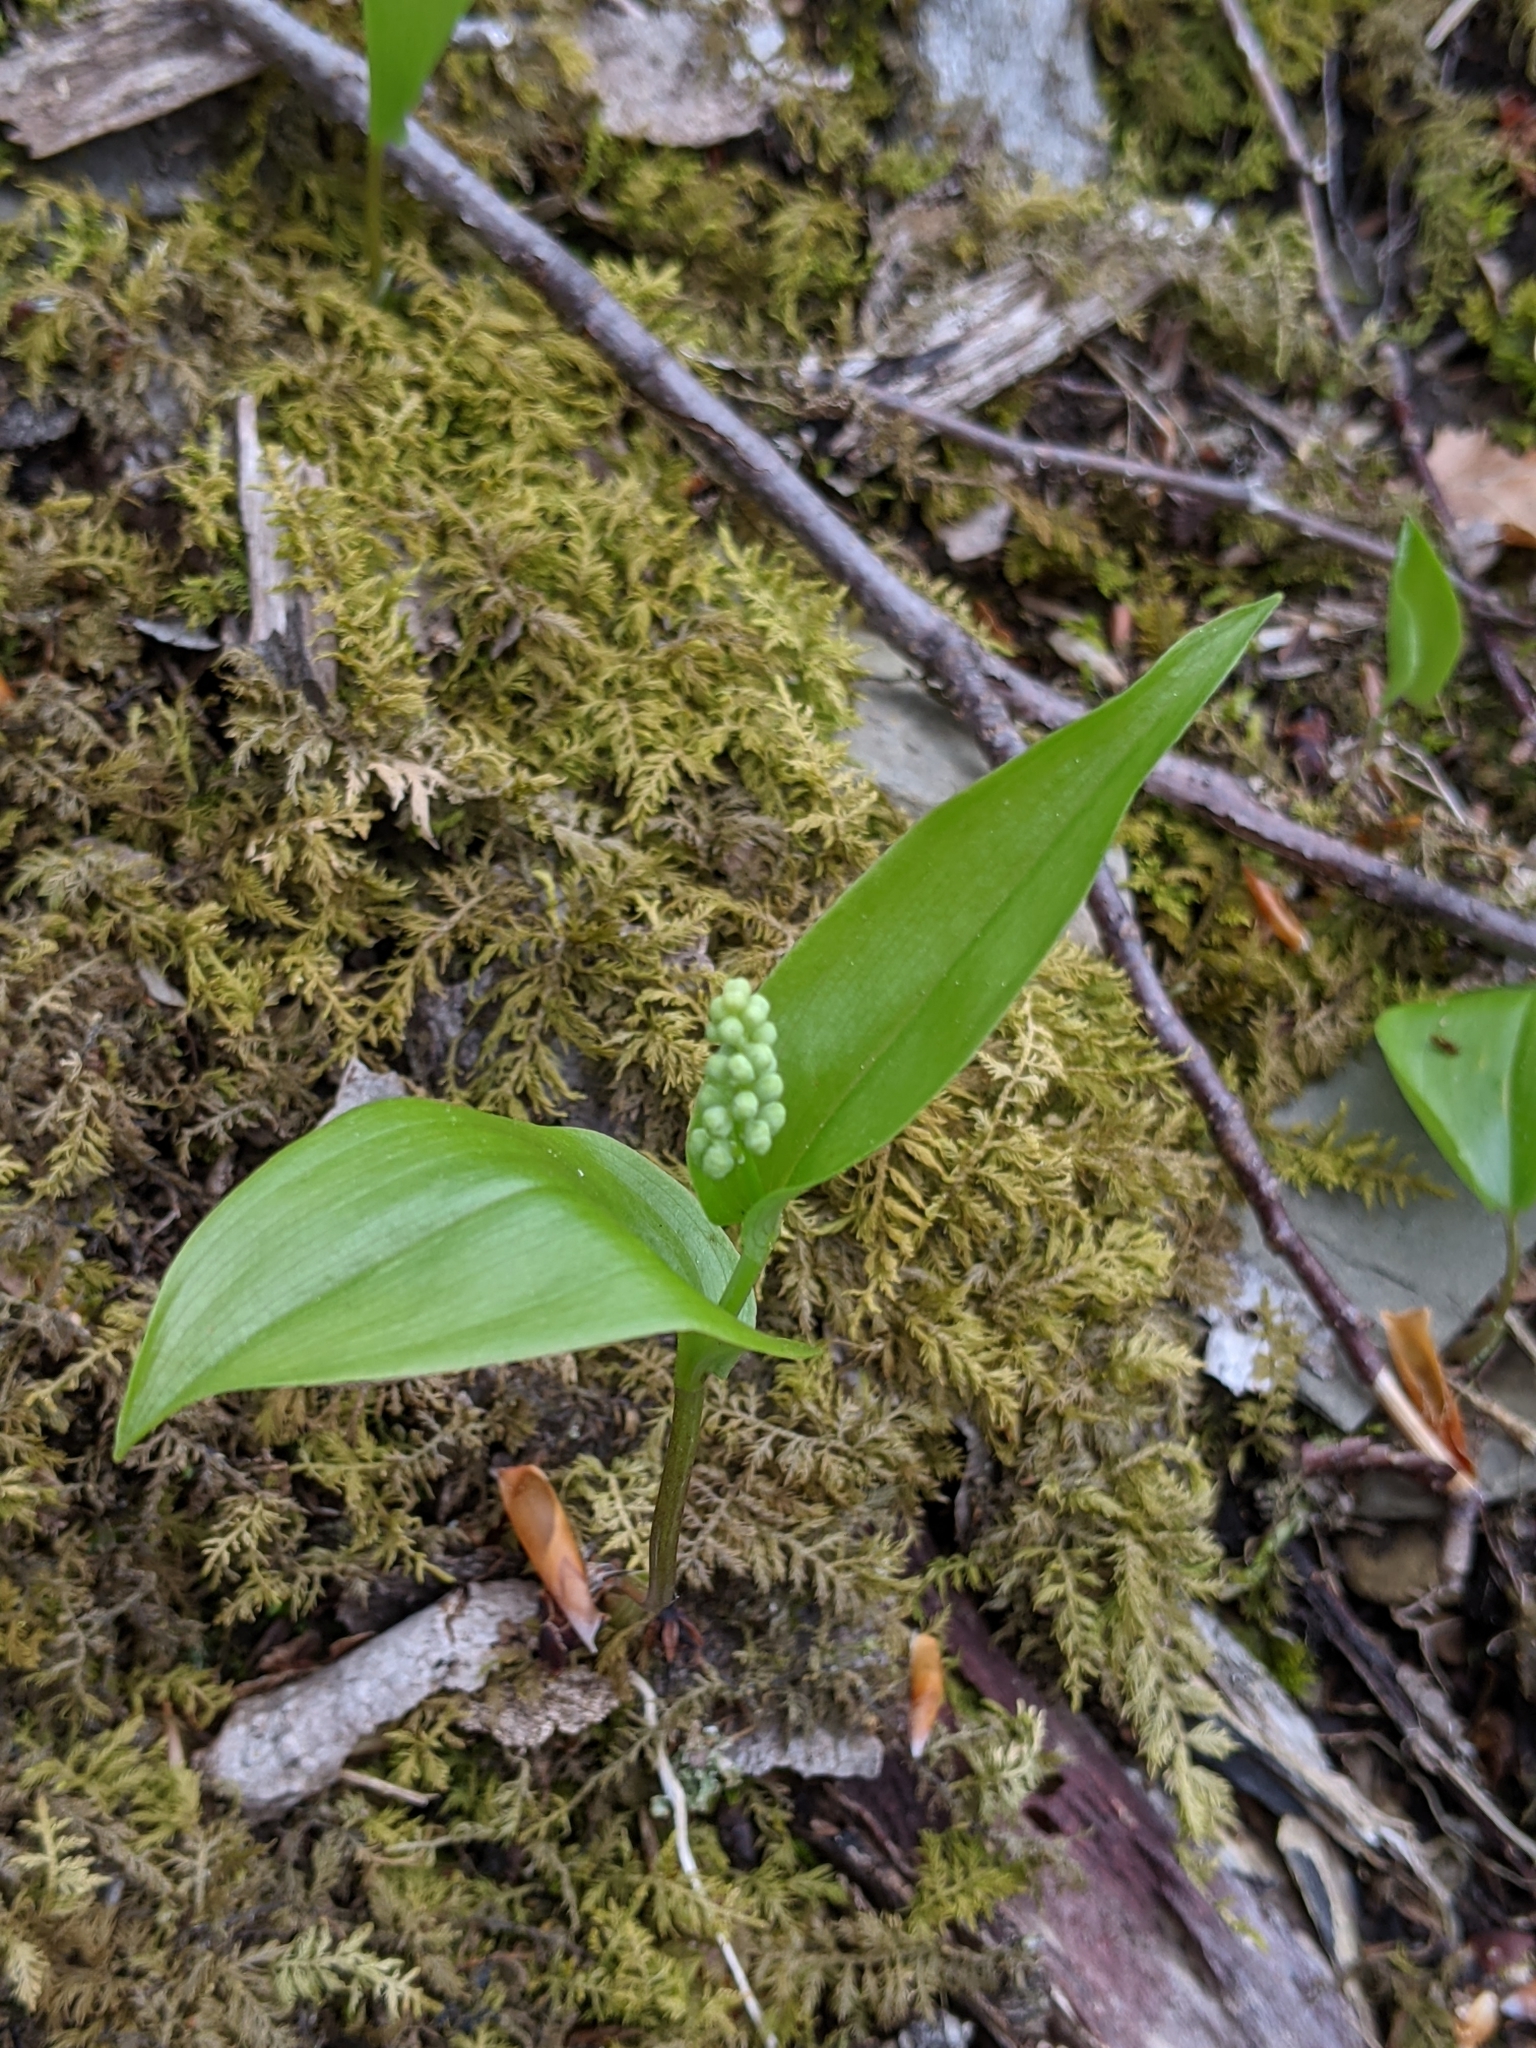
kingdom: Plantae
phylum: Tracheophyta
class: Liliopsida
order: Asparagales
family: Asparagaceae
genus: Maianthemum
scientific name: Maianthemum canadense
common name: False lily-of-the-valley
